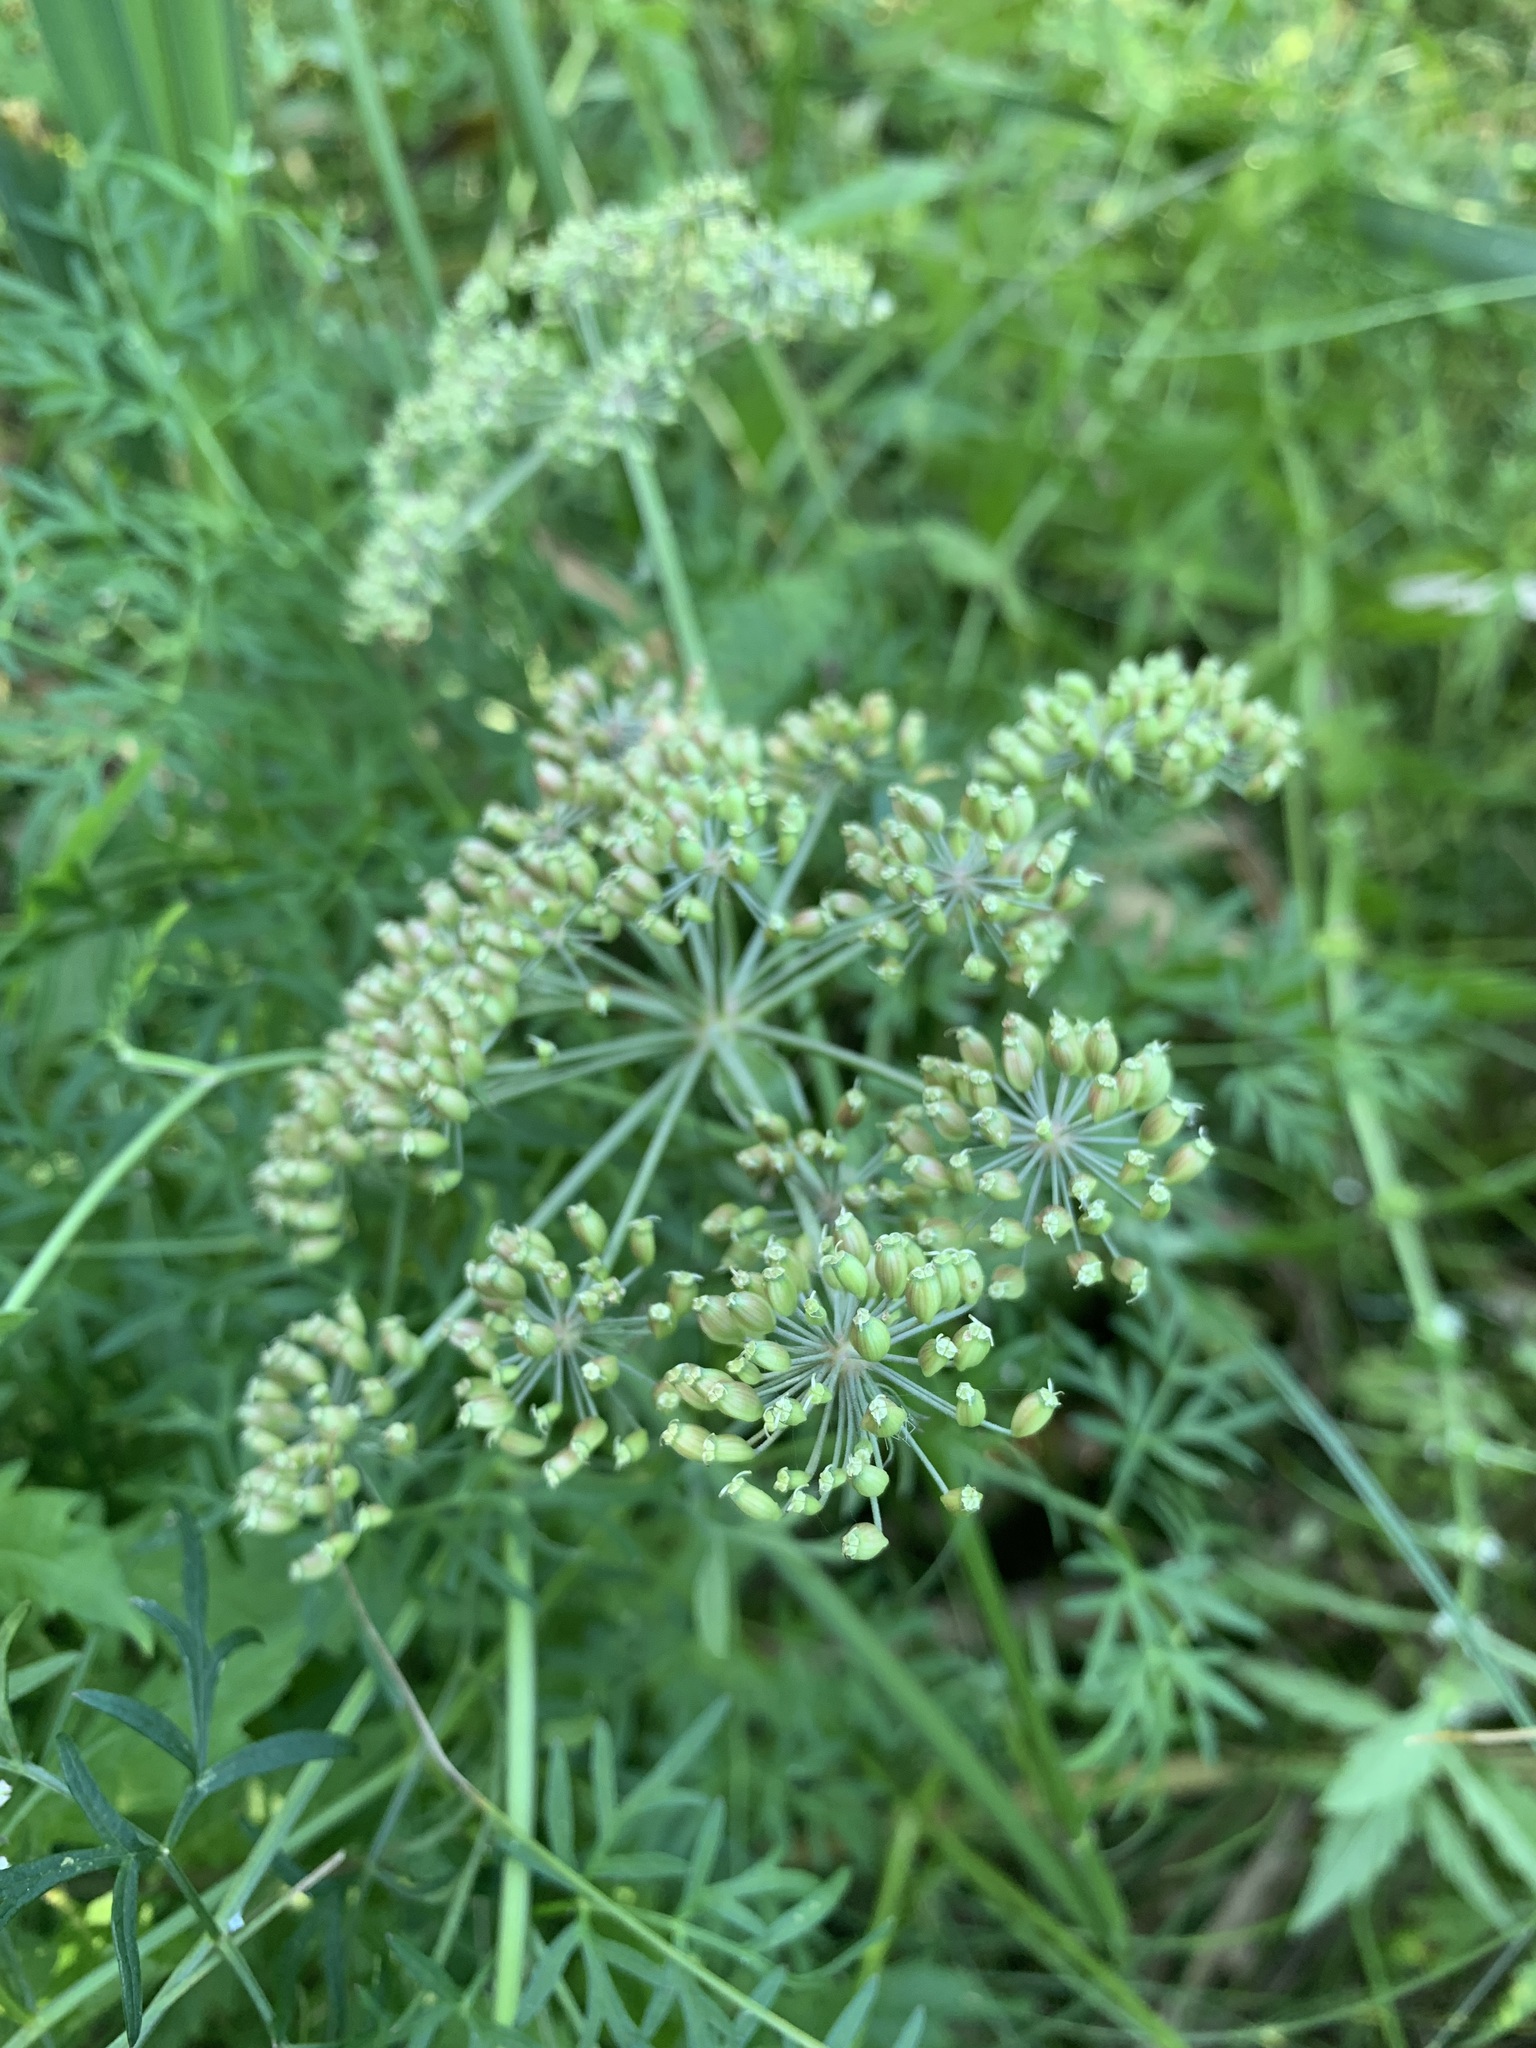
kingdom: Plantae
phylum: Tracheophyta
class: Magnoliopsida
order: Apiales
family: Apiaceae
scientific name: Apiaceae
